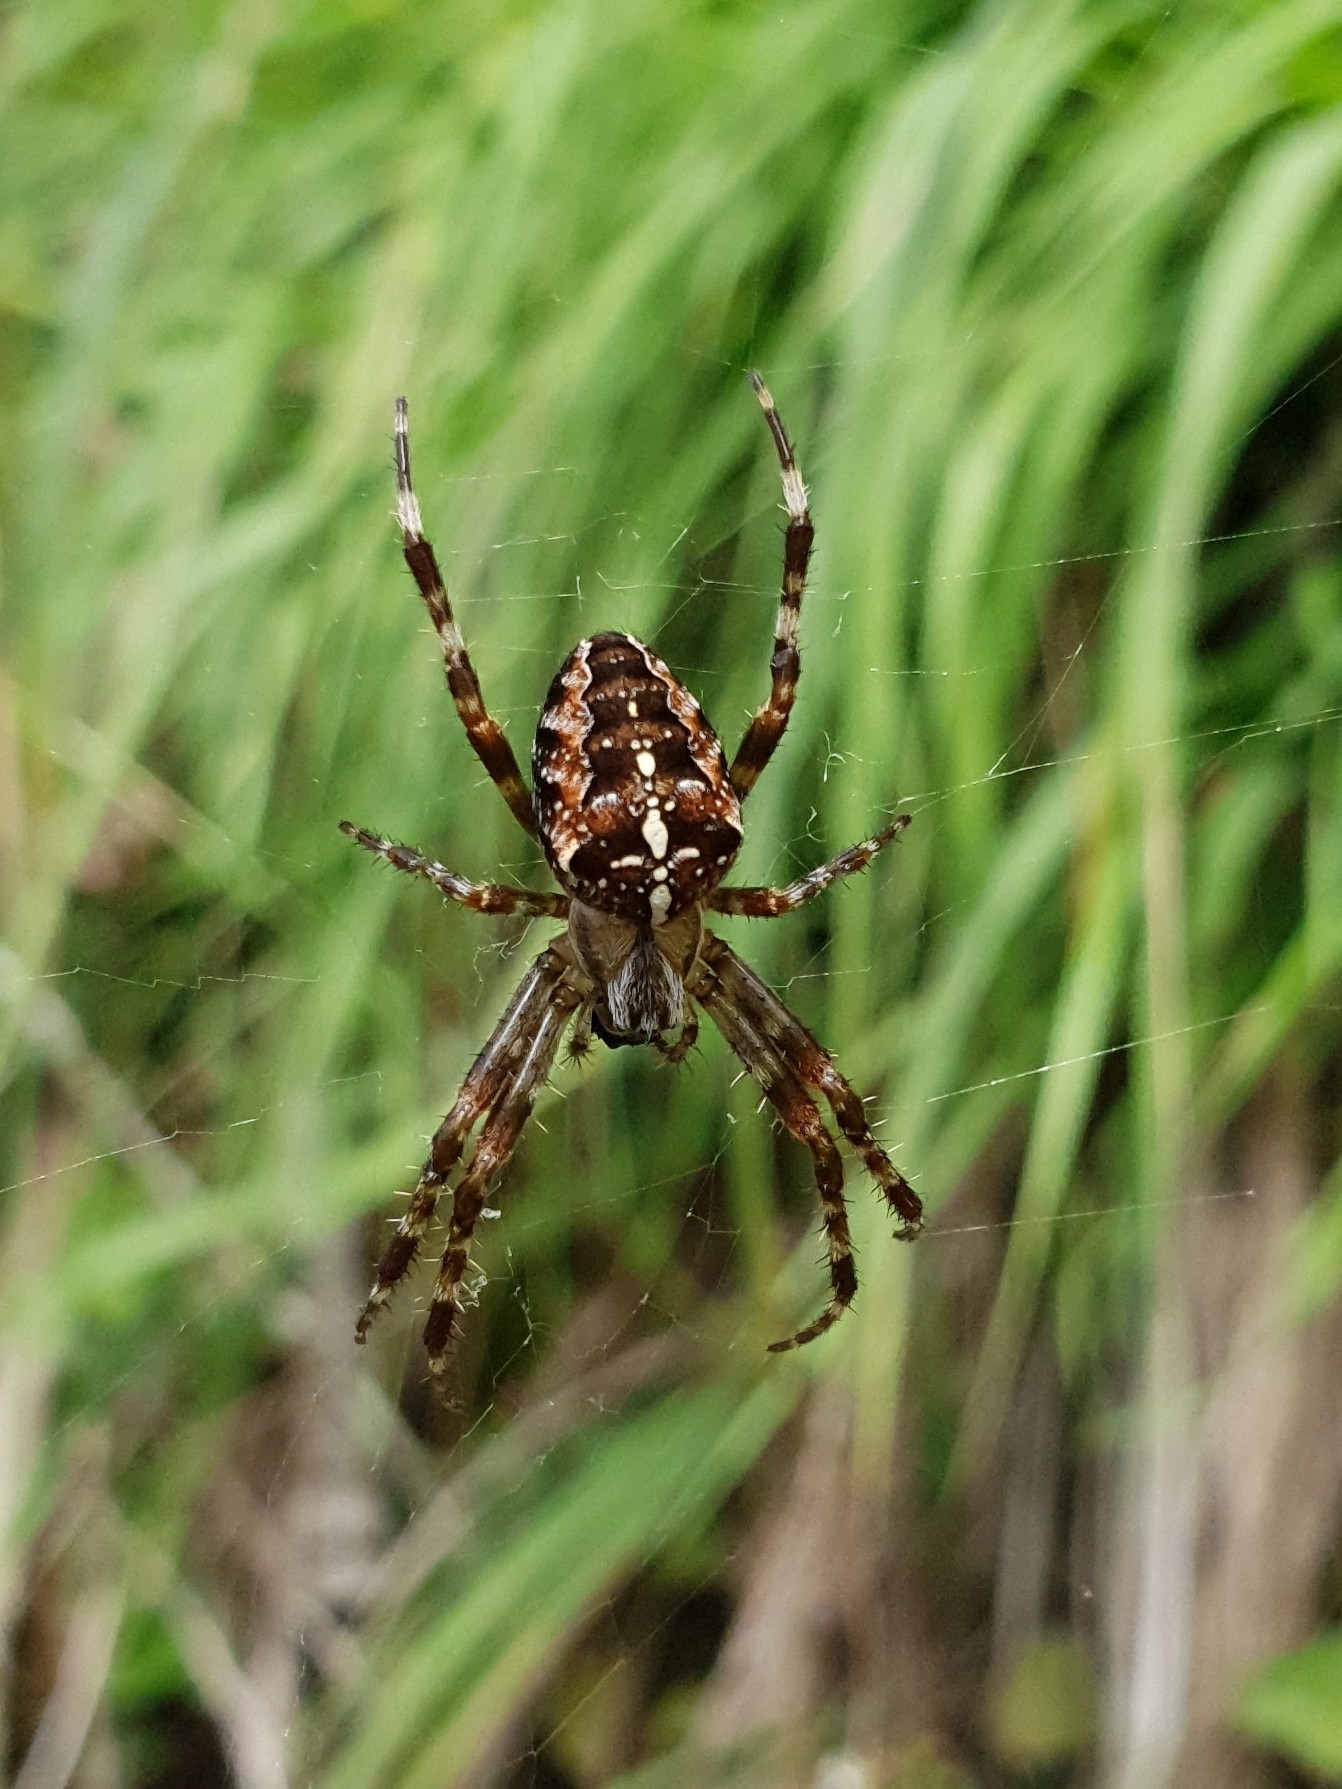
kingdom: Animalia
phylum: Arthropoda
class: Arachnida
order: Araneae
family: Araneidae
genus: Araneus
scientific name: Araneus diadematus
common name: Cross orbweaver
